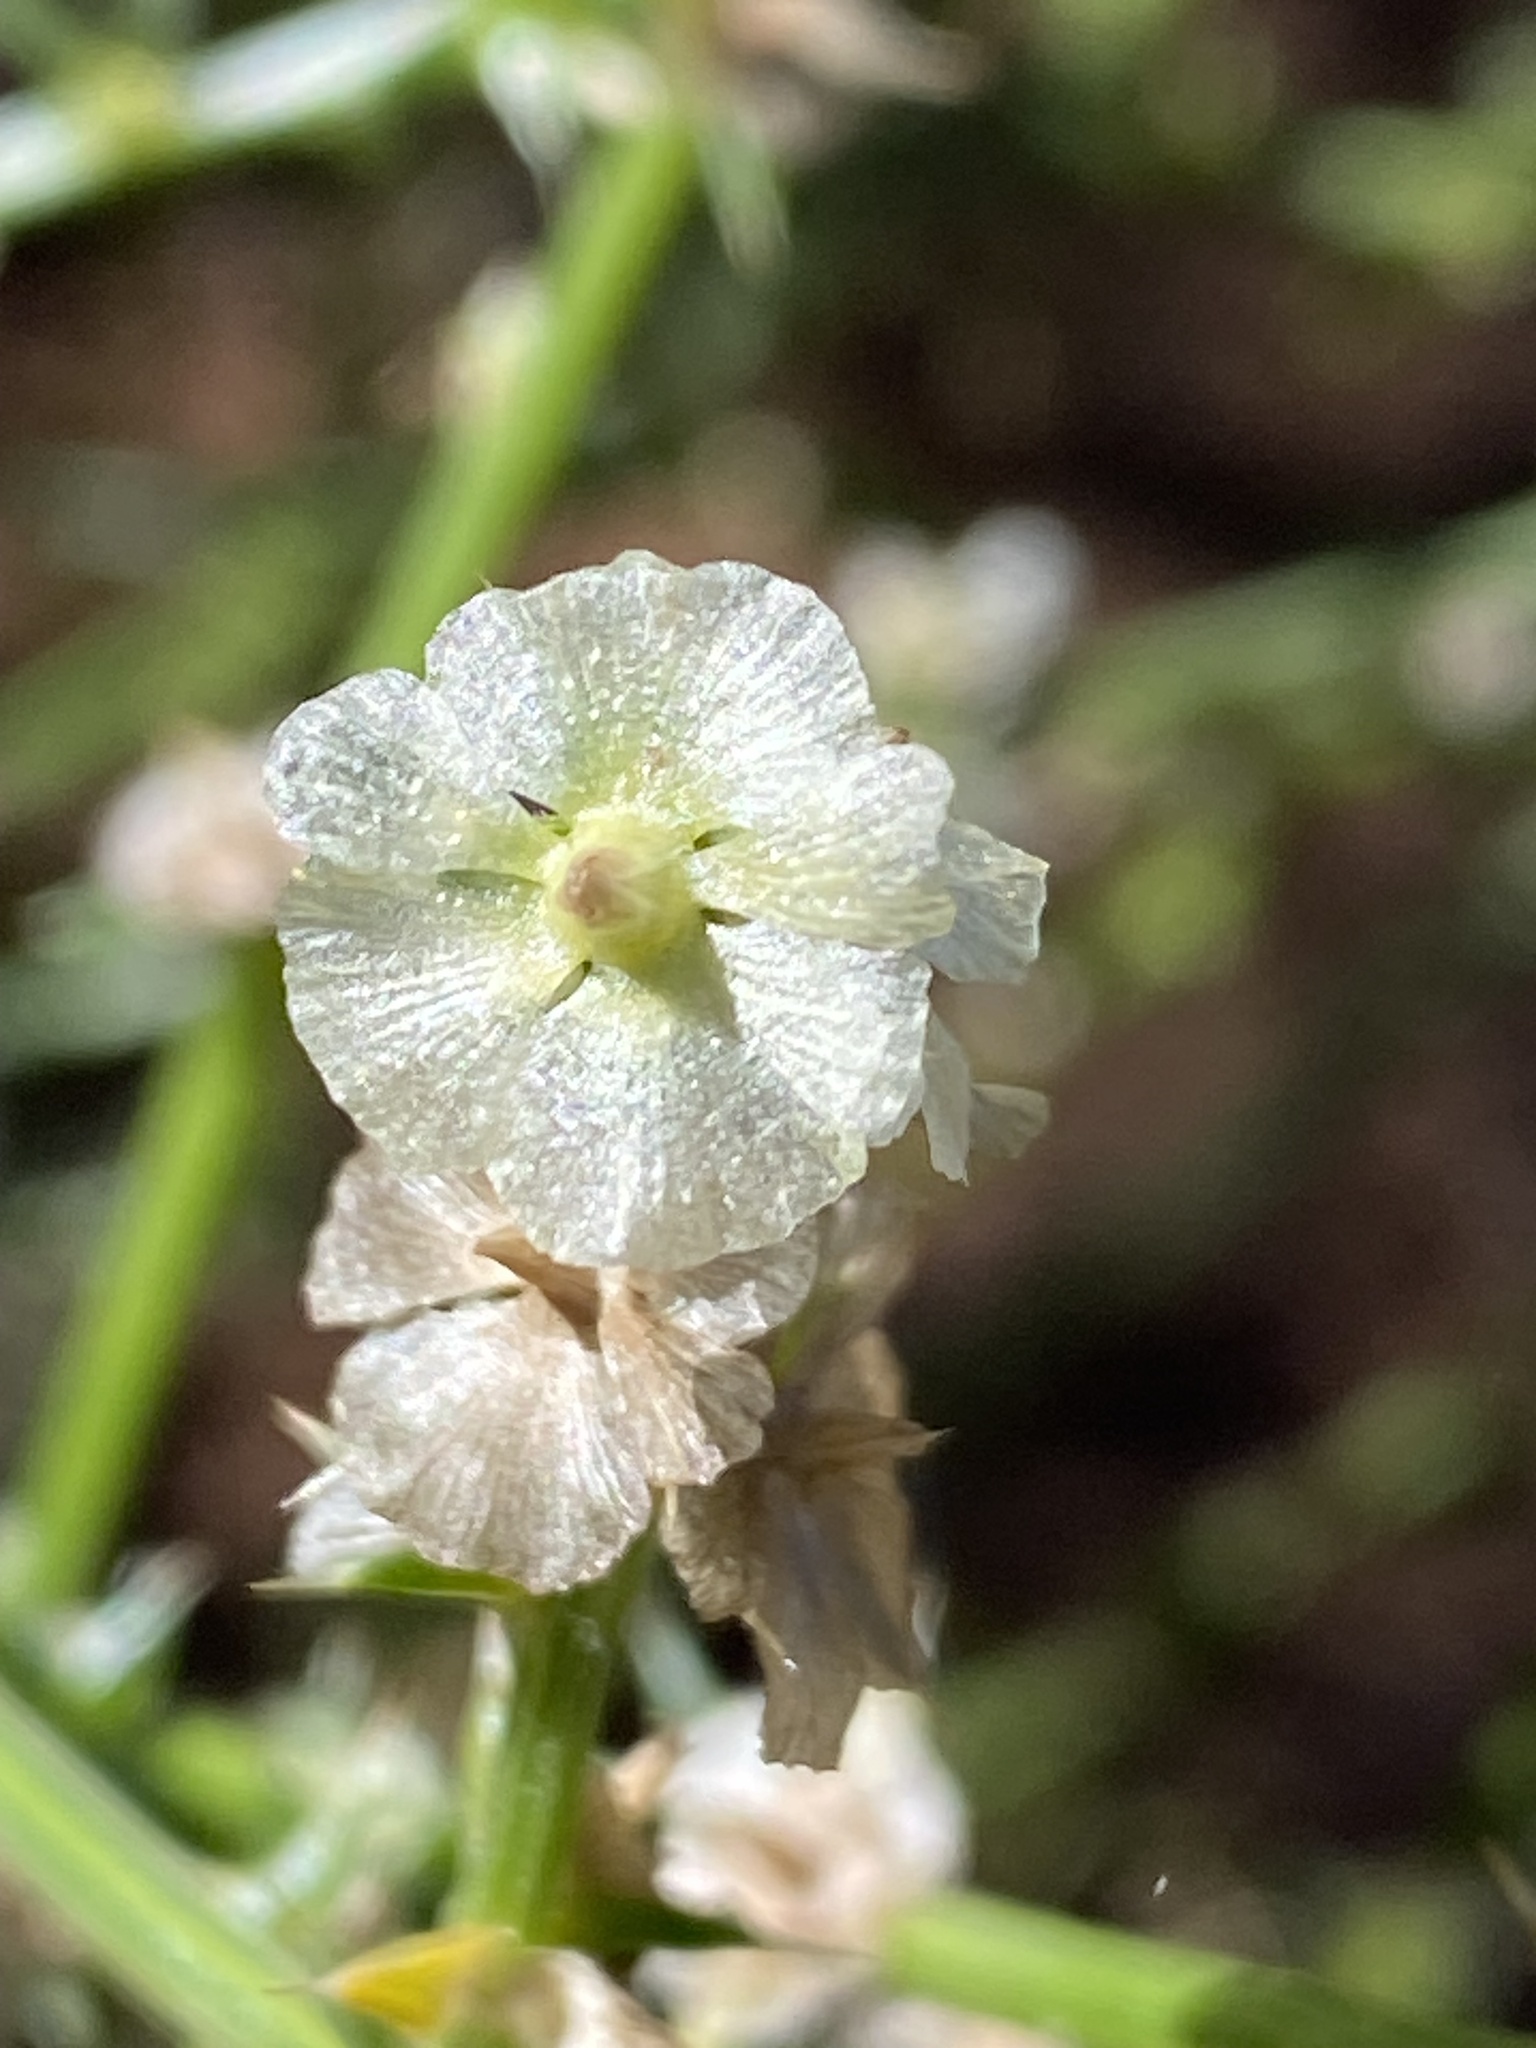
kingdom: Plantae
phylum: Tracheophyta
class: Magnoliopsida
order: Caryophyllales
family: Amaranthaceae
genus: Salsola
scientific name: Salsola australis
